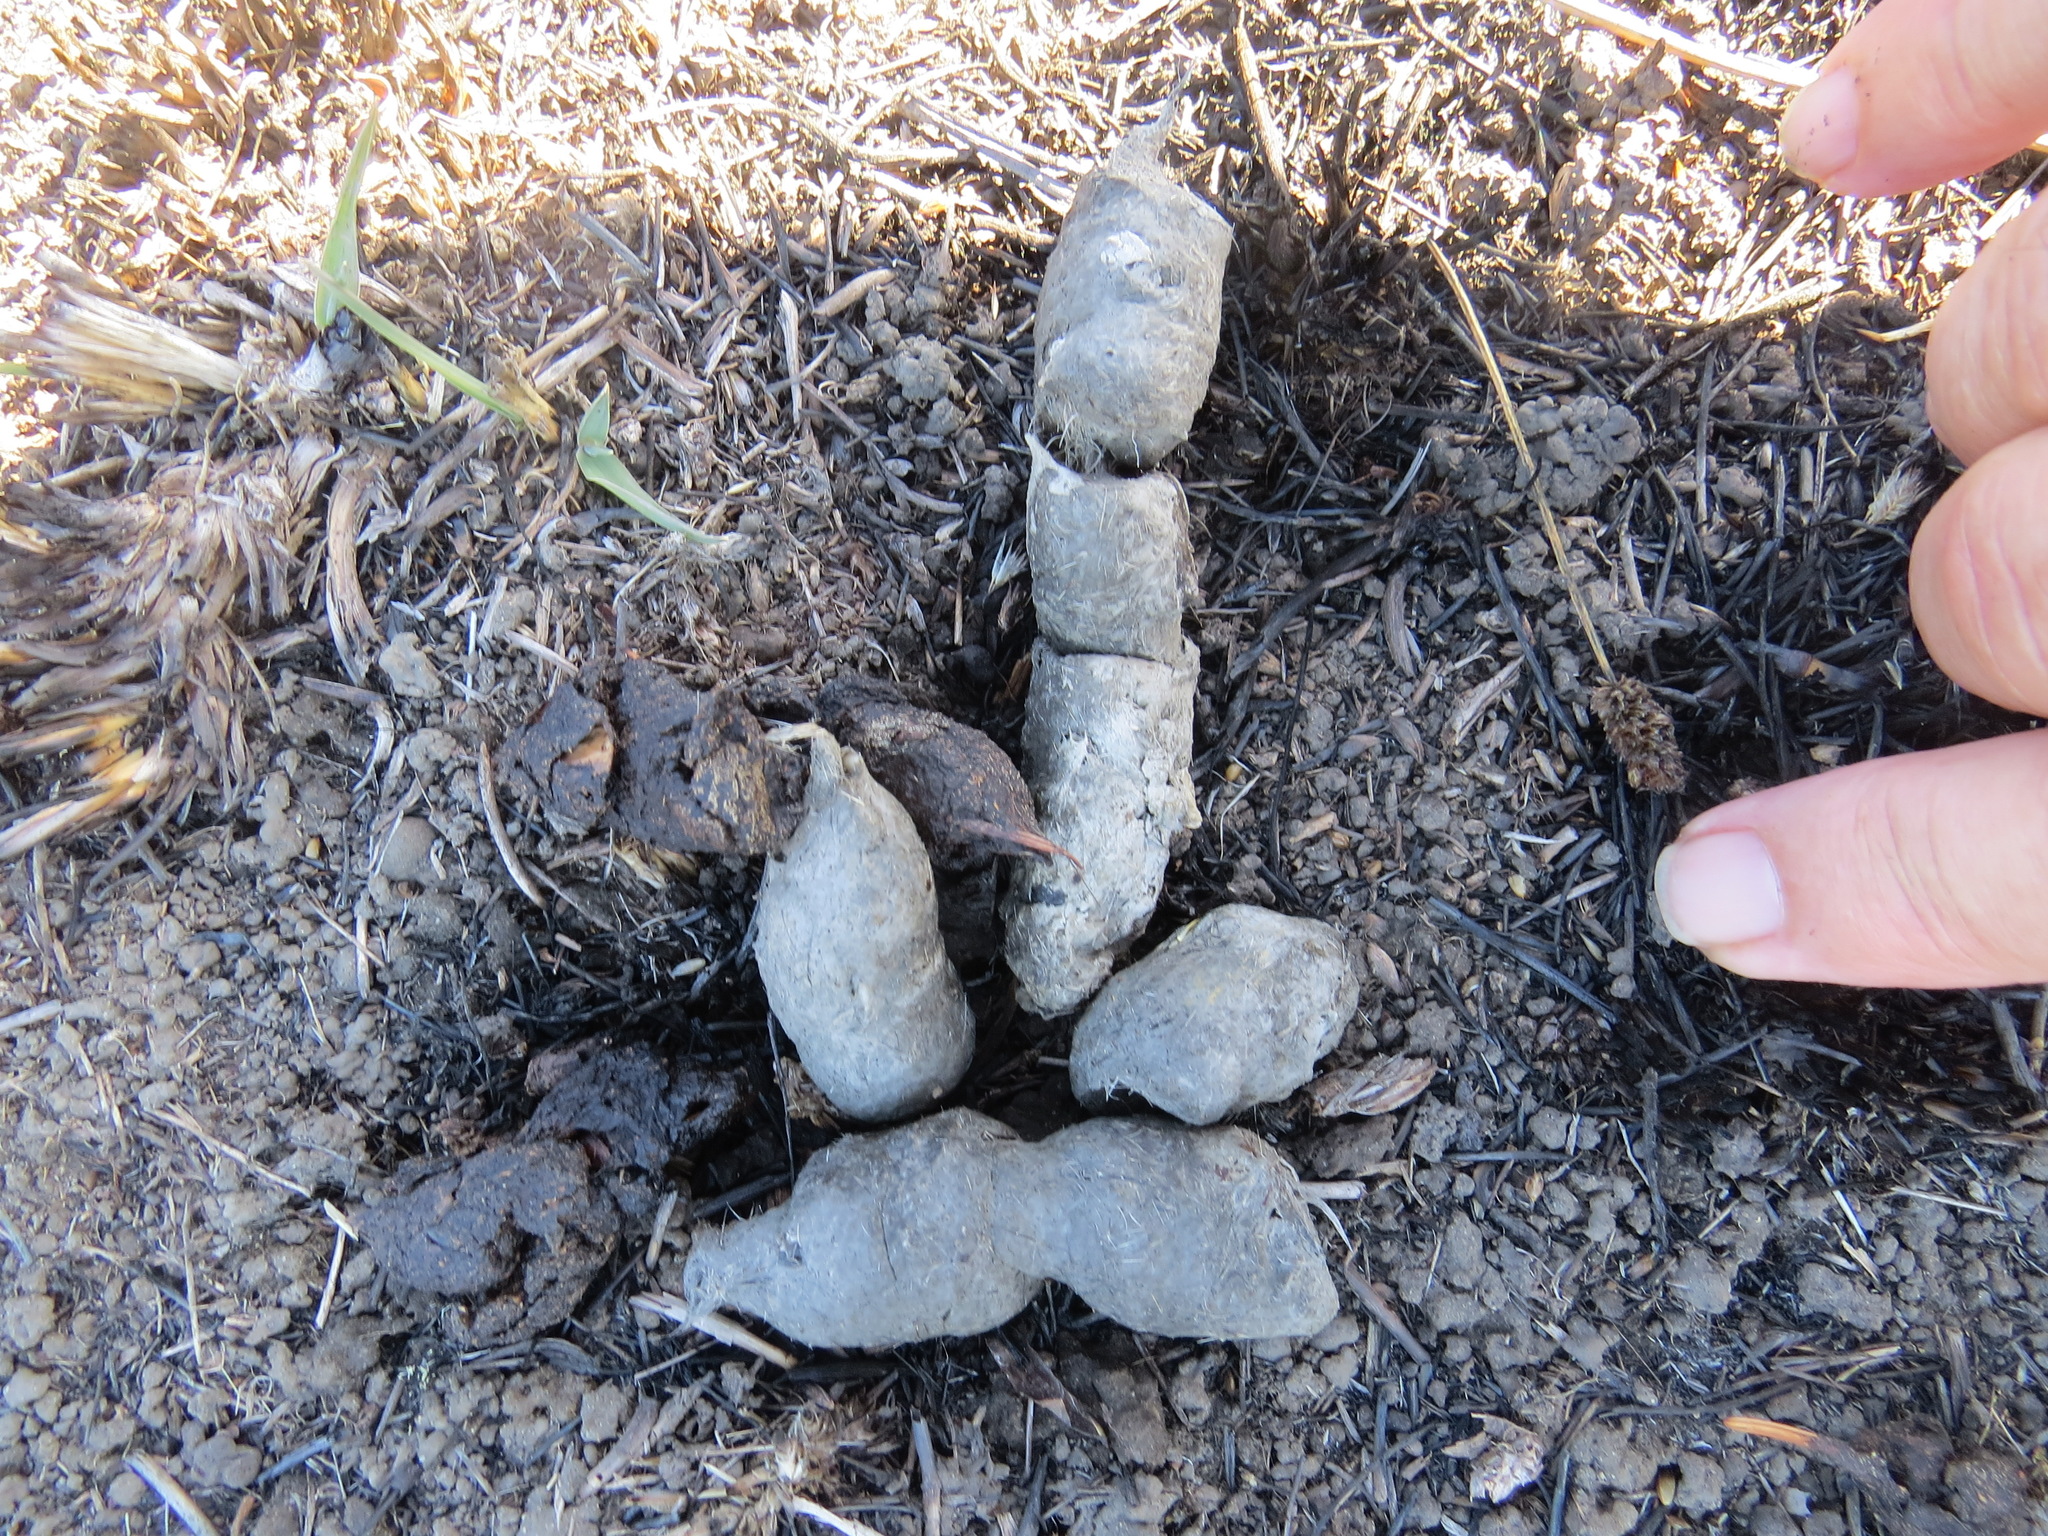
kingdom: Animalia
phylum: Chordata
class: Mammalia
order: Carnivora
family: Felidae
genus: Lynx
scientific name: Lynx rufus
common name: Bobcat
